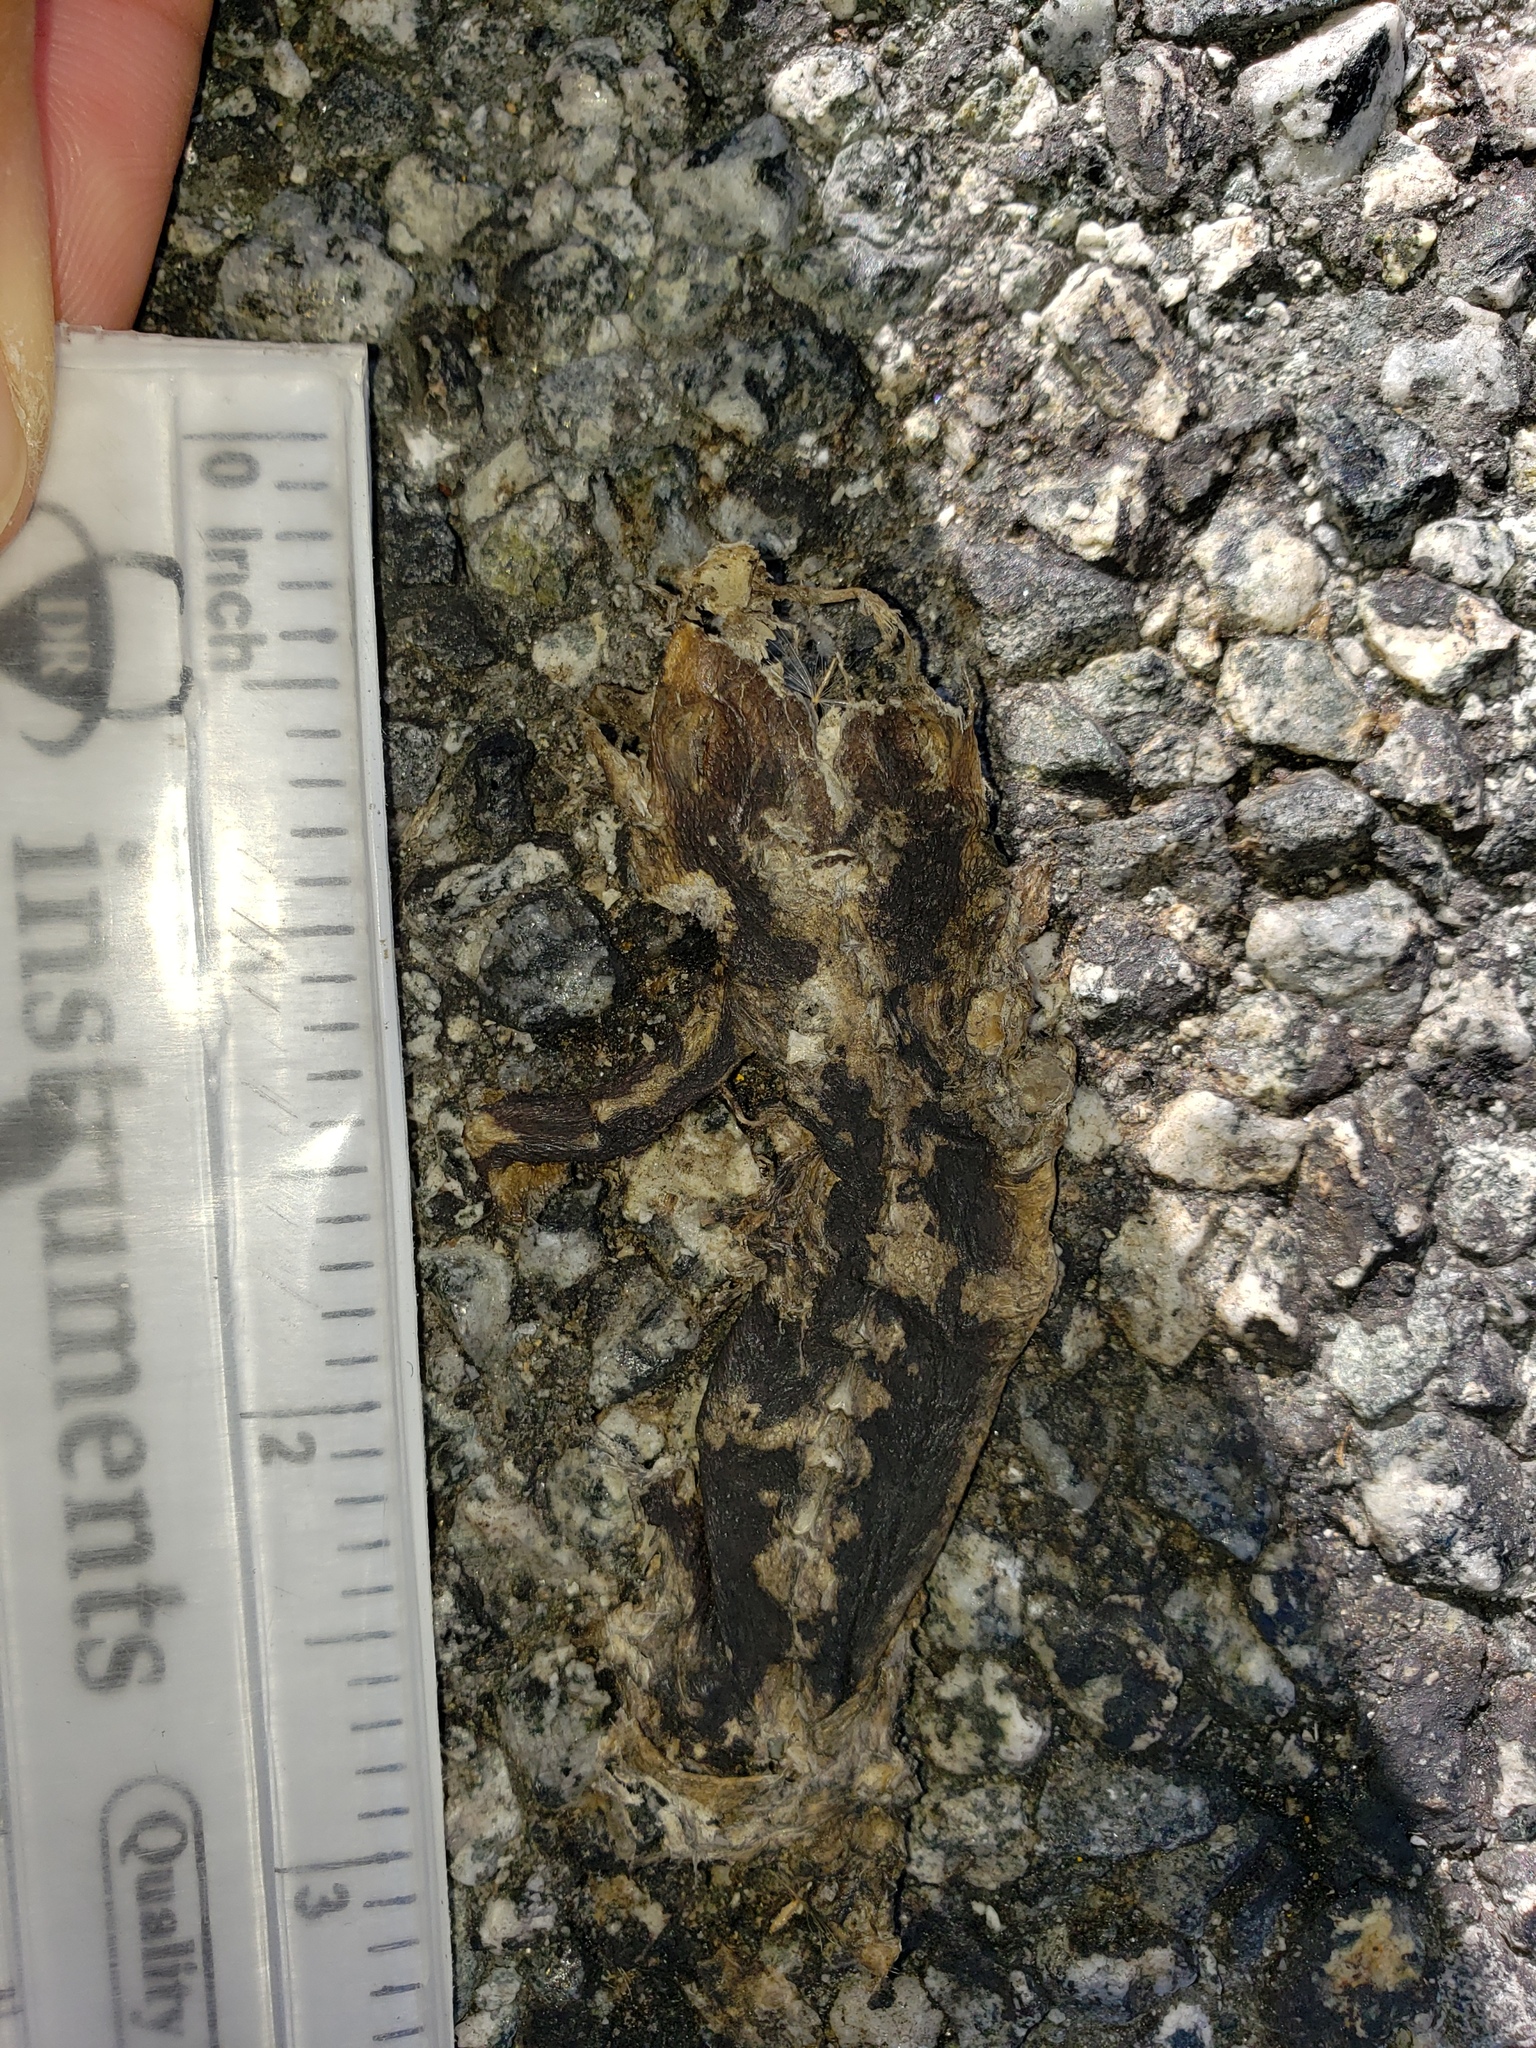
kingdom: Animalia
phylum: Chordata
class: Amphibia
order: Caudata
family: Salamandridae
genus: Taricha
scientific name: Taricha
